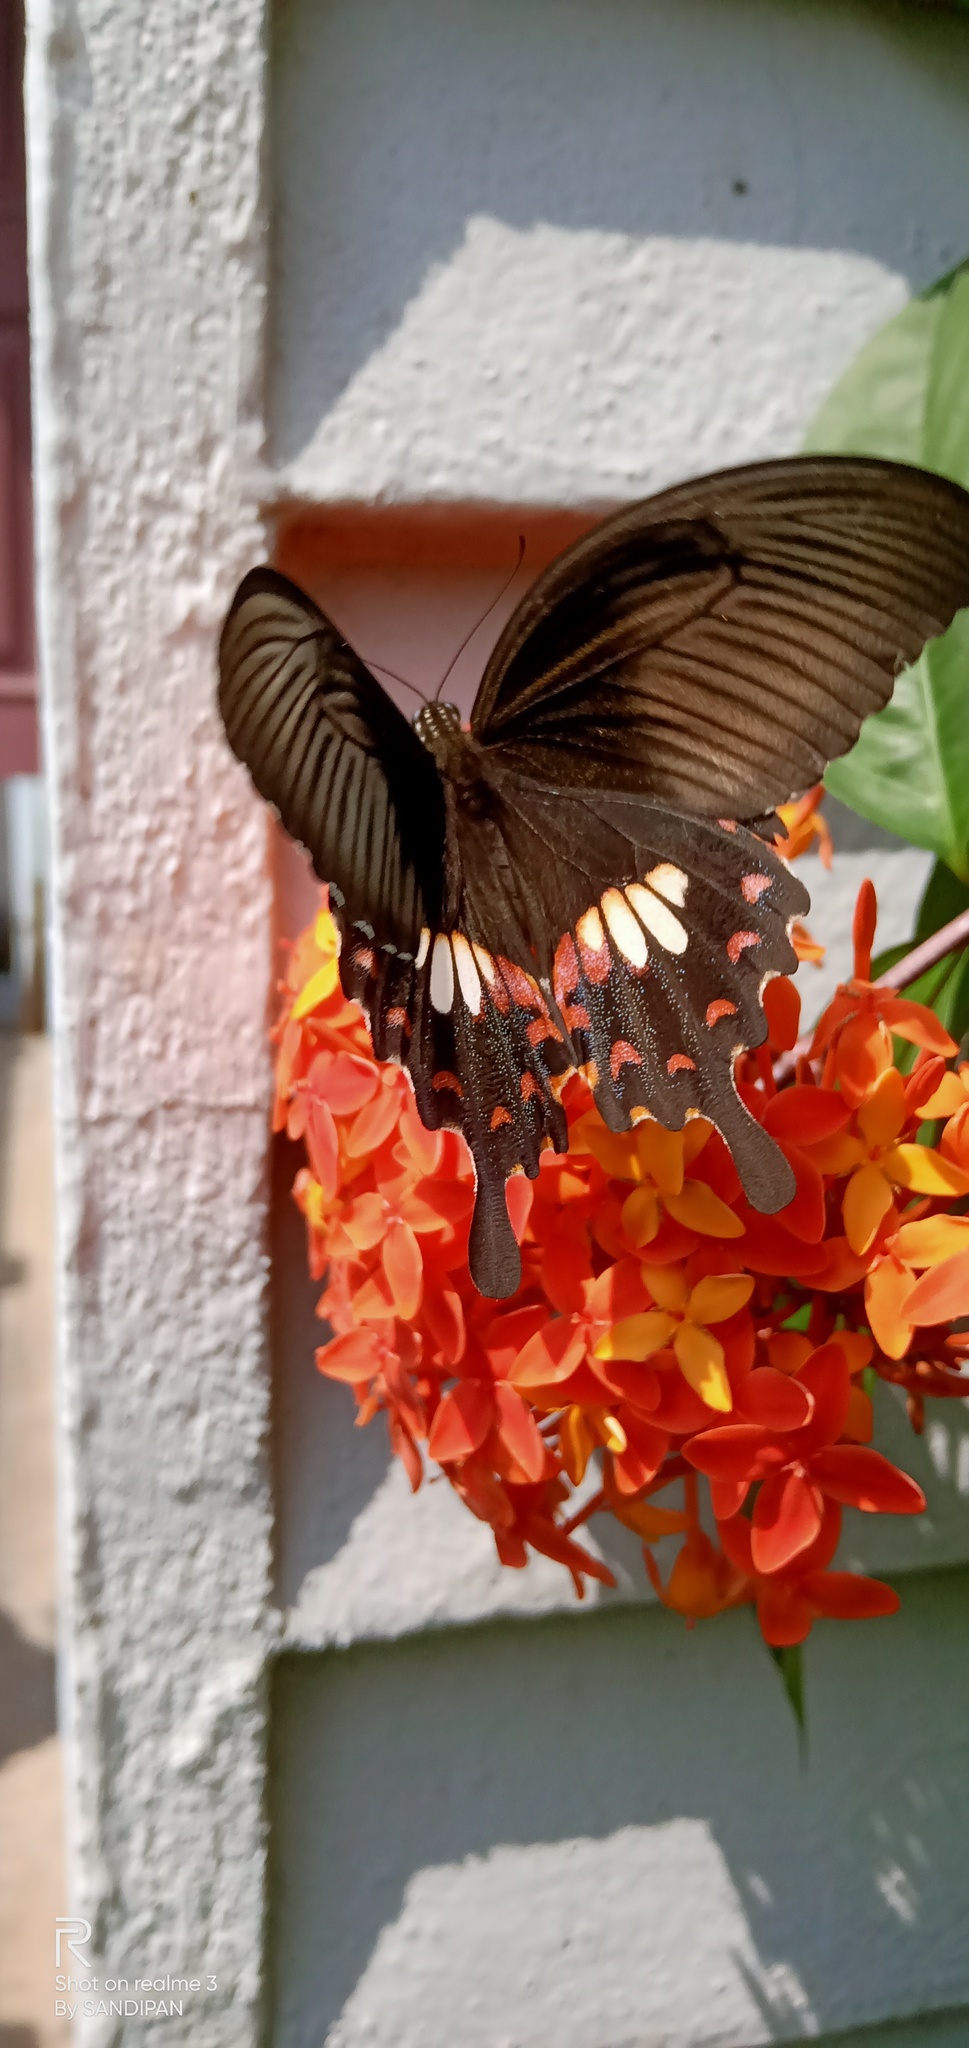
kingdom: Animalia
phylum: Arthropoda
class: Insecta
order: Lepidoptera
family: Papilionidae
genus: Papilio
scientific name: Papilio polytes
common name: Common mormon
